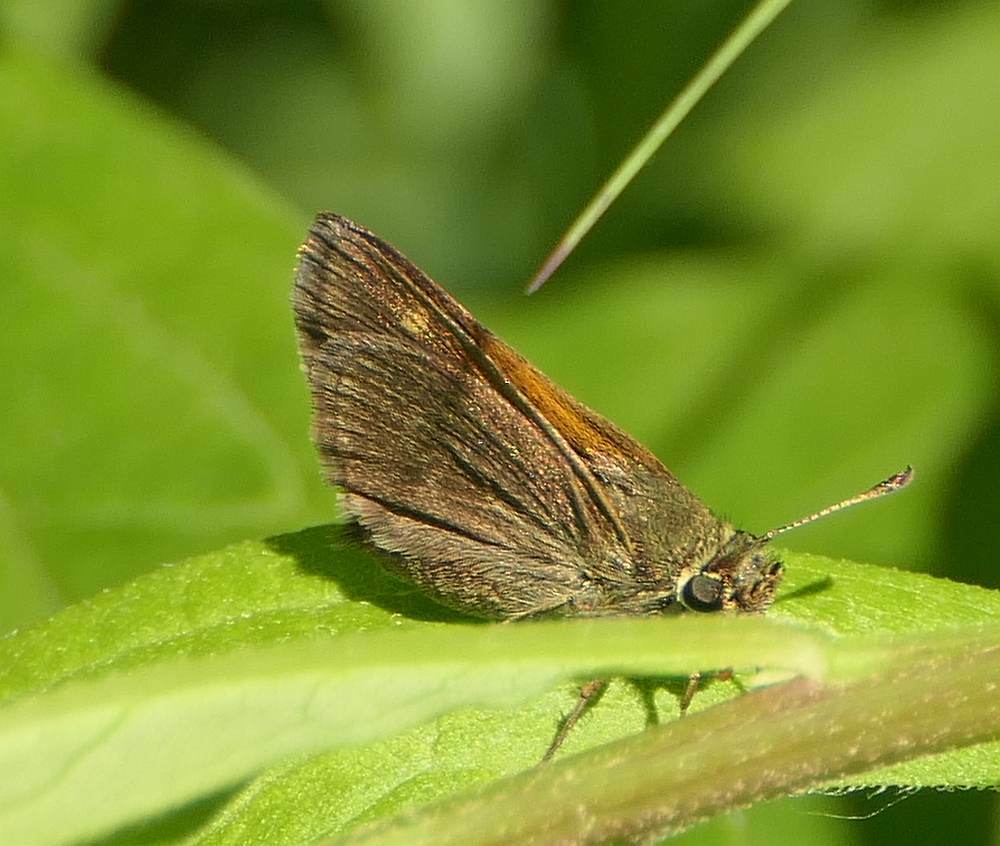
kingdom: Animalia
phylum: Arthropoda
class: Insecta
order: Lepidoptera
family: Hesperiidae
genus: Polites
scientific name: Polites themistocles
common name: Tawny-edged skipper
